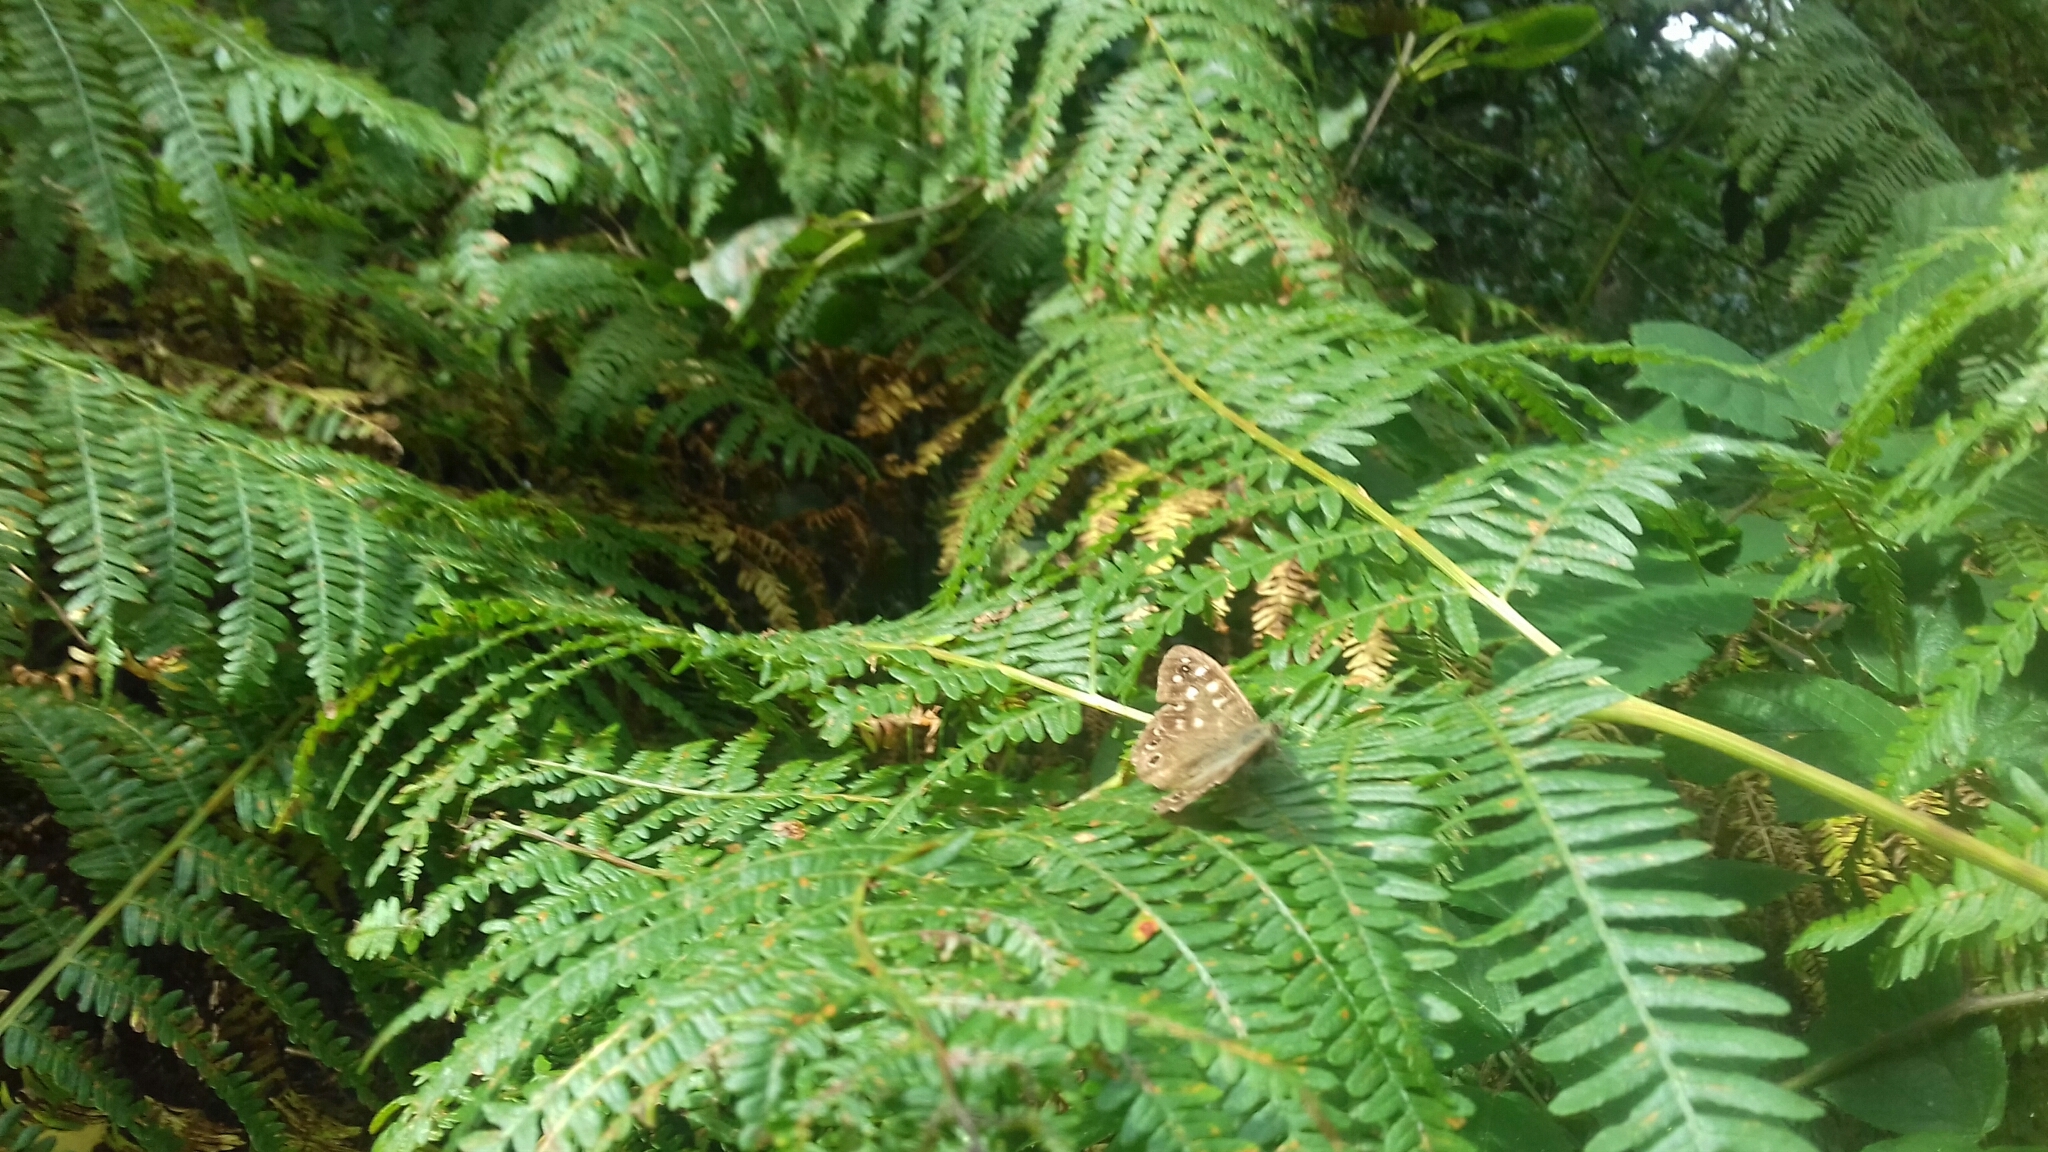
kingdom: Animalia
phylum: Arthropoda
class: Insecta
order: Lepidoptera
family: Nymphalidae
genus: Pararge
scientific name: Pararge aegeria
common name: Speckled wood
